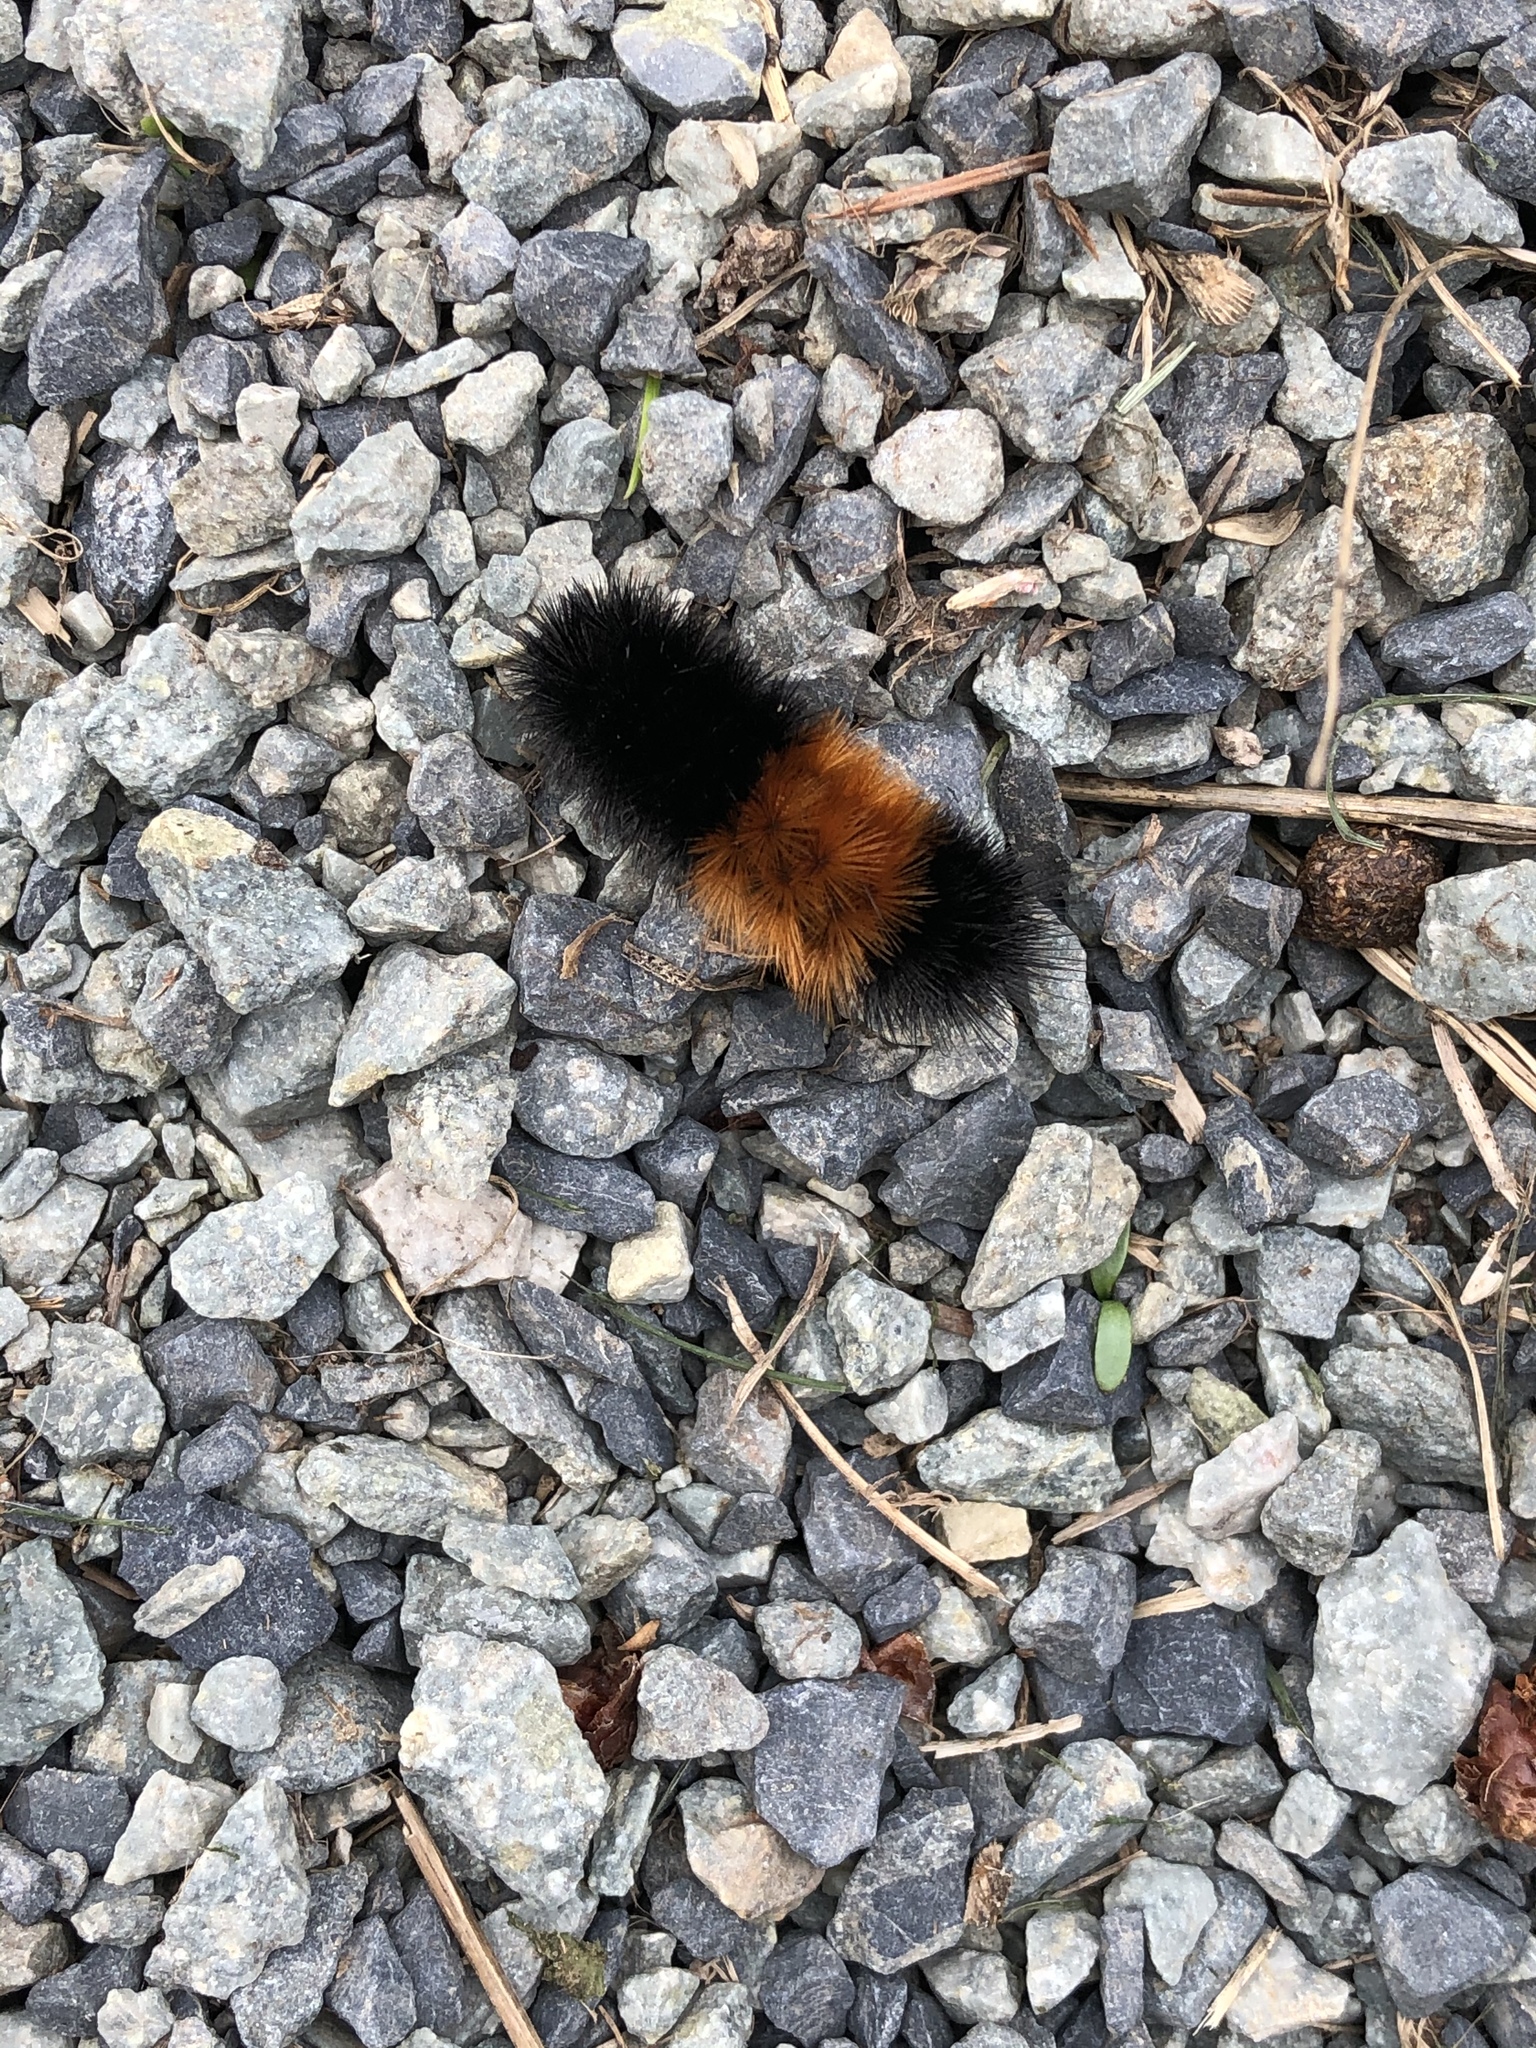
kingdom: Animalia
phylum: Arthropoda
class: Insecta
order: Lepidoptera
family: Erebidae
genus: Pyrrharctia
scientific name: Pyrrharctia isabella
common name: Isabella tiger moth
